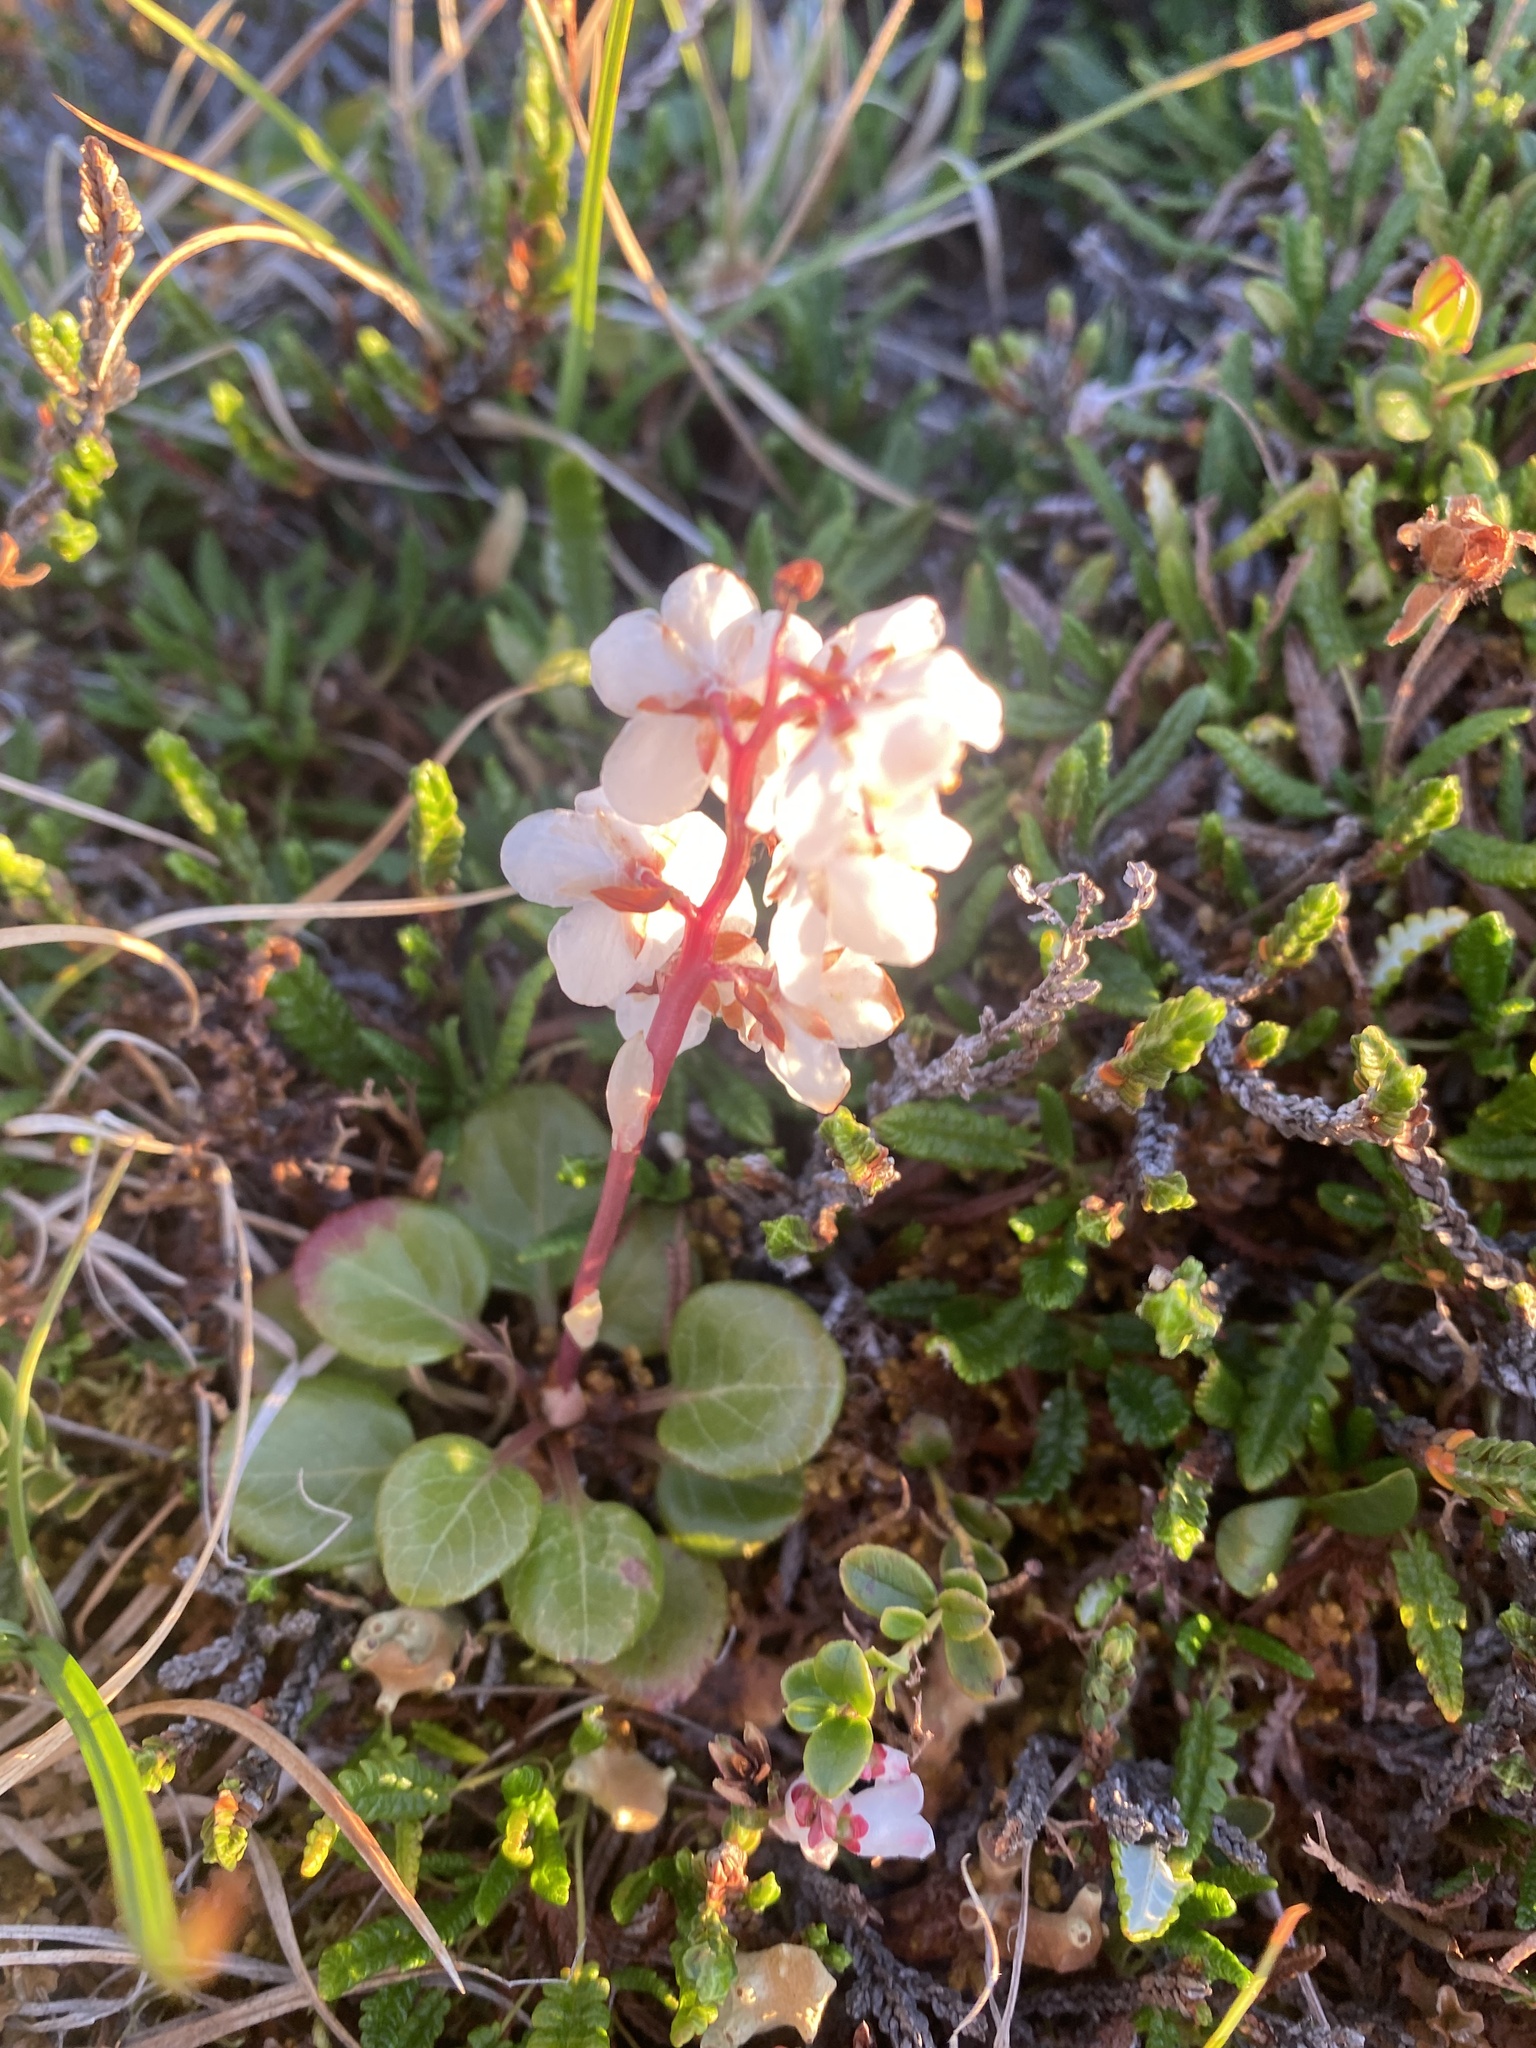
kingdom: Plantae
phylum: Tracheophyta
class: Magnoliopsida
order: Ericales
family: Ericaceae
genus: Pyrola
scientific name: Pyrola grandiflora
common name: Arctic pyrola
